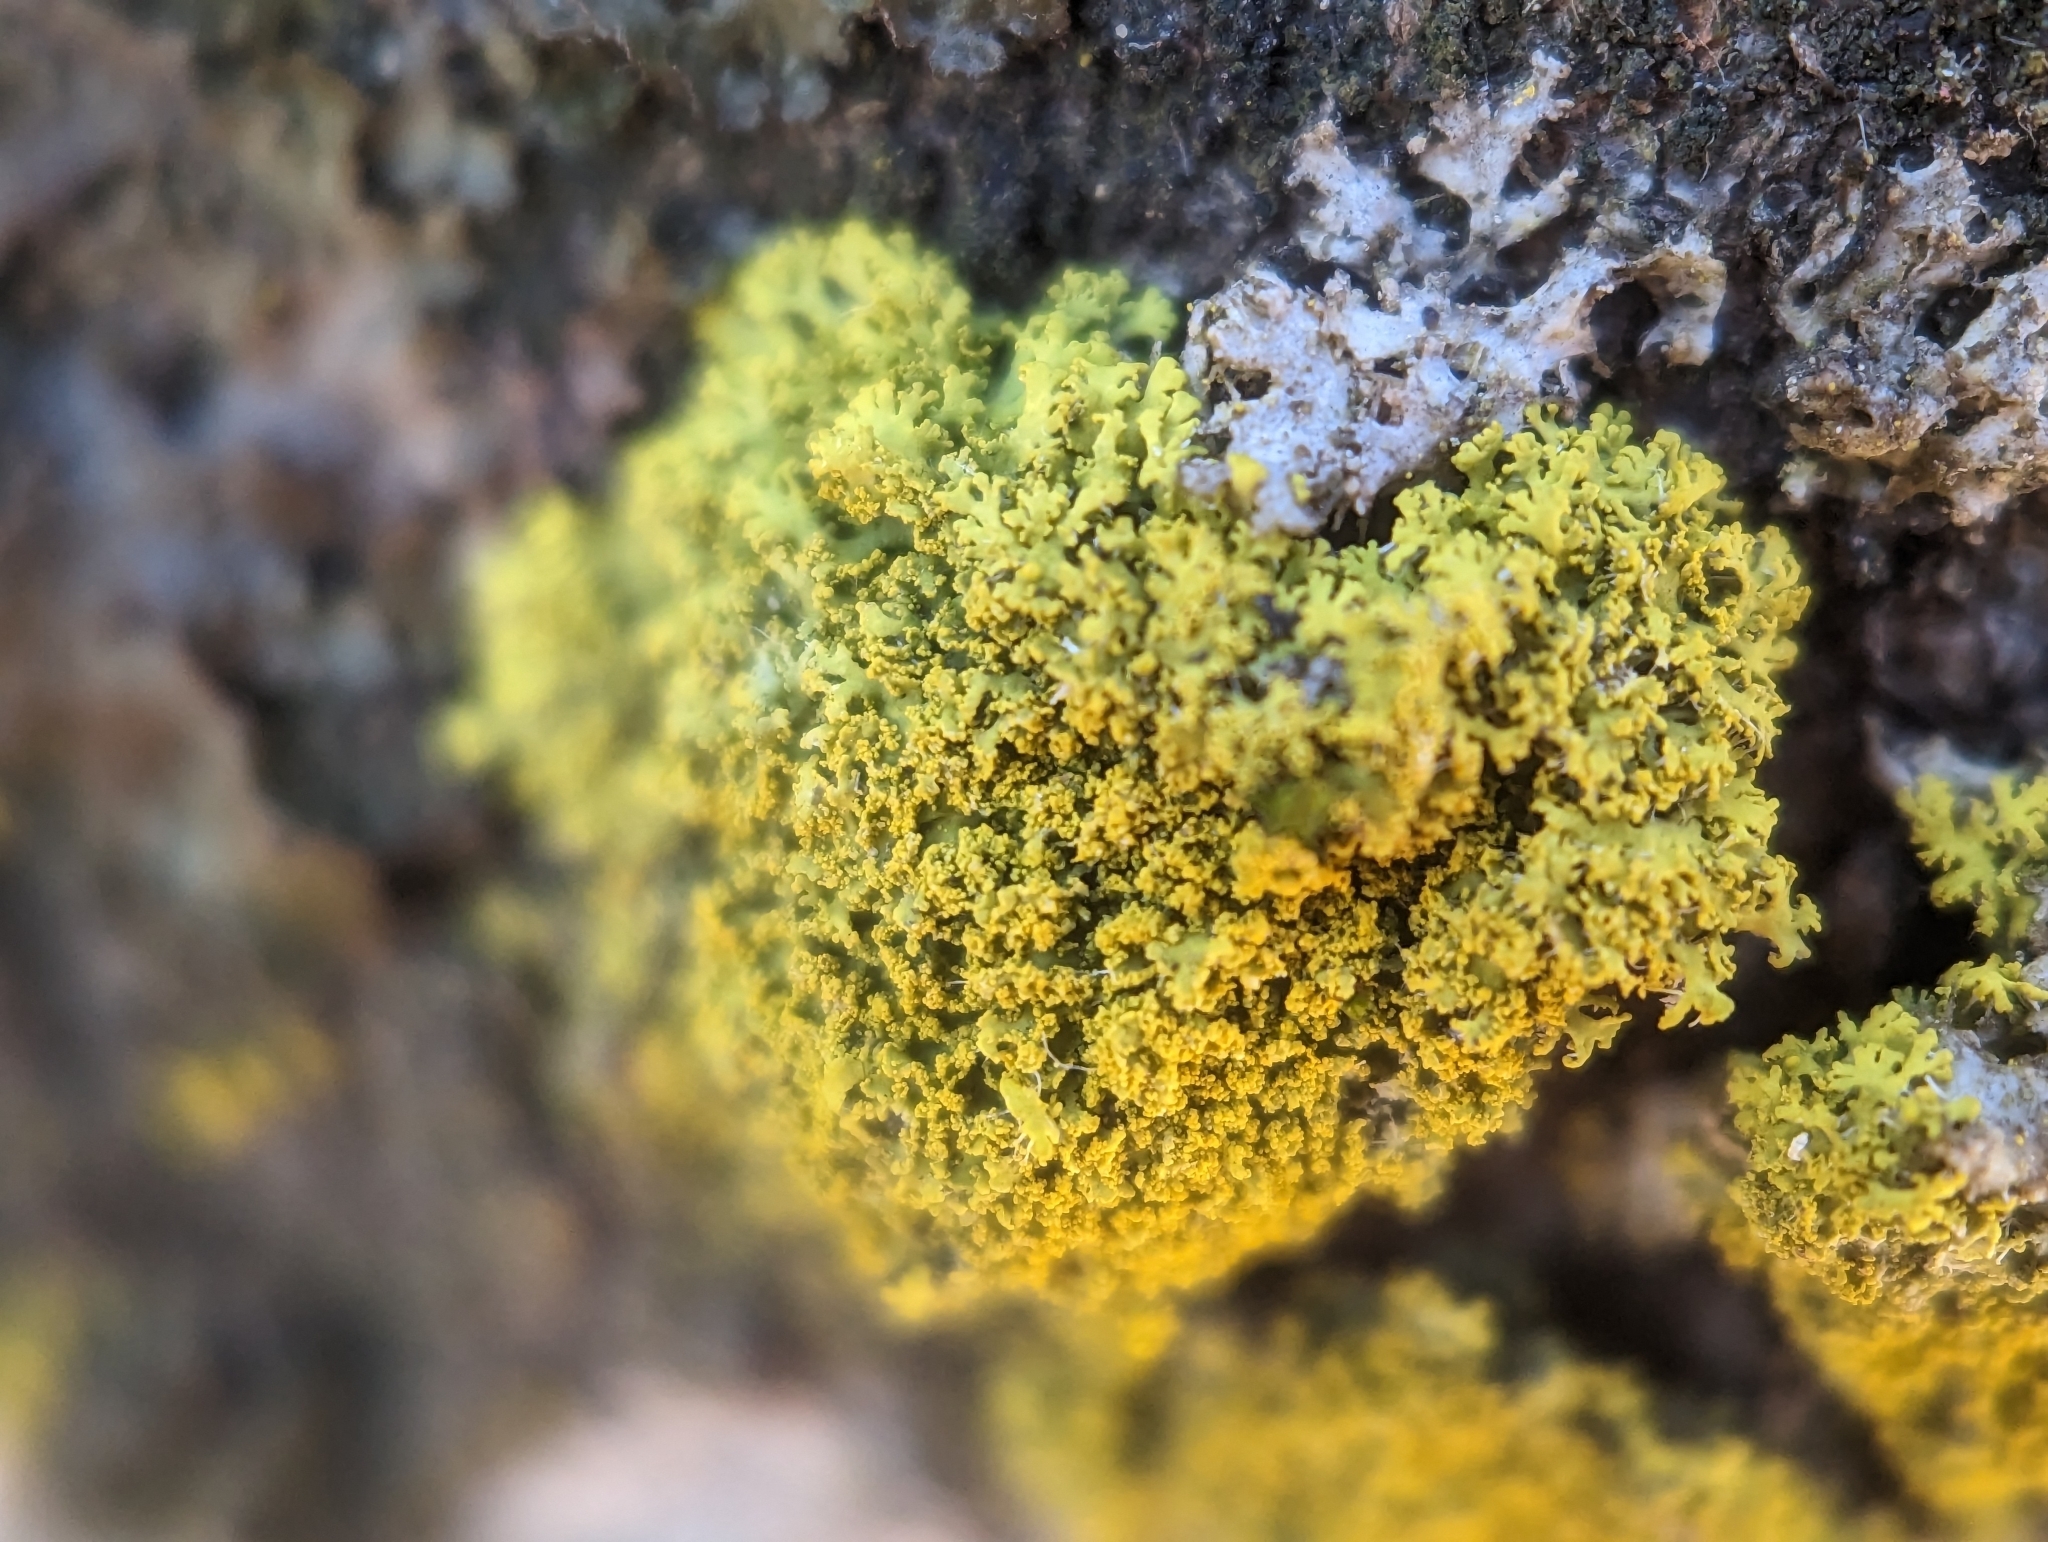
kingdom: Fungi
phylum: Ascomycota
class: Candelariomycetes
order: Candelariales
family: Candelariaceae
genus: Candelaria
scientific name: Candelaria concolor
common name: Candleflame lichen
